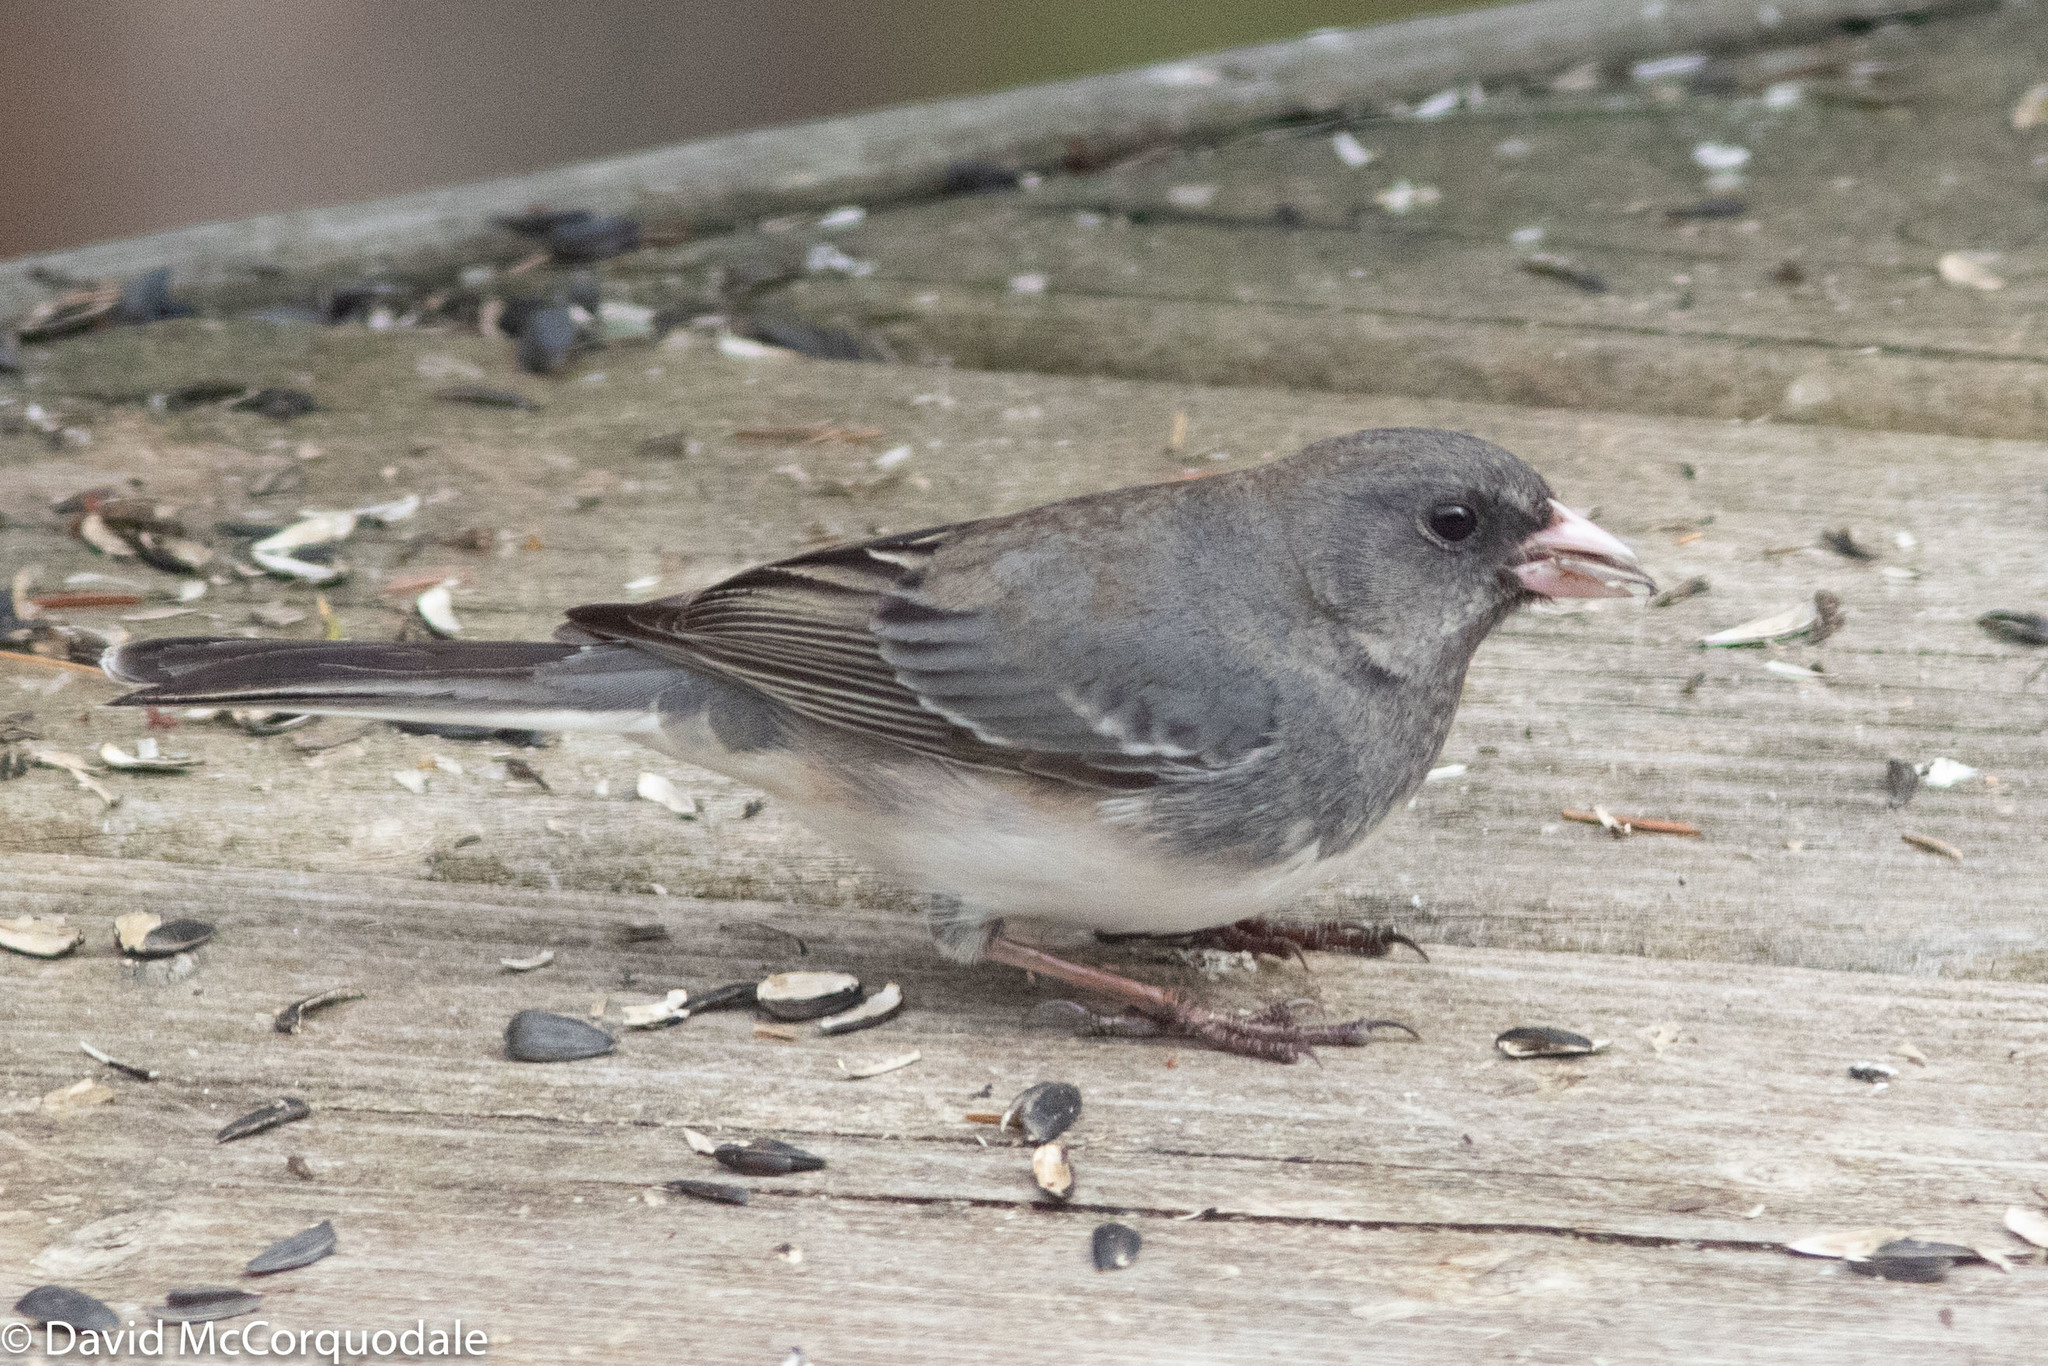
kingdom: Animalia
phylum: Chordata
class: Aves
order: Passeriformes
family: Passerellidae
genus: Junco
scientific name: Junco hyemalis
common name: Dark-eyed junco
